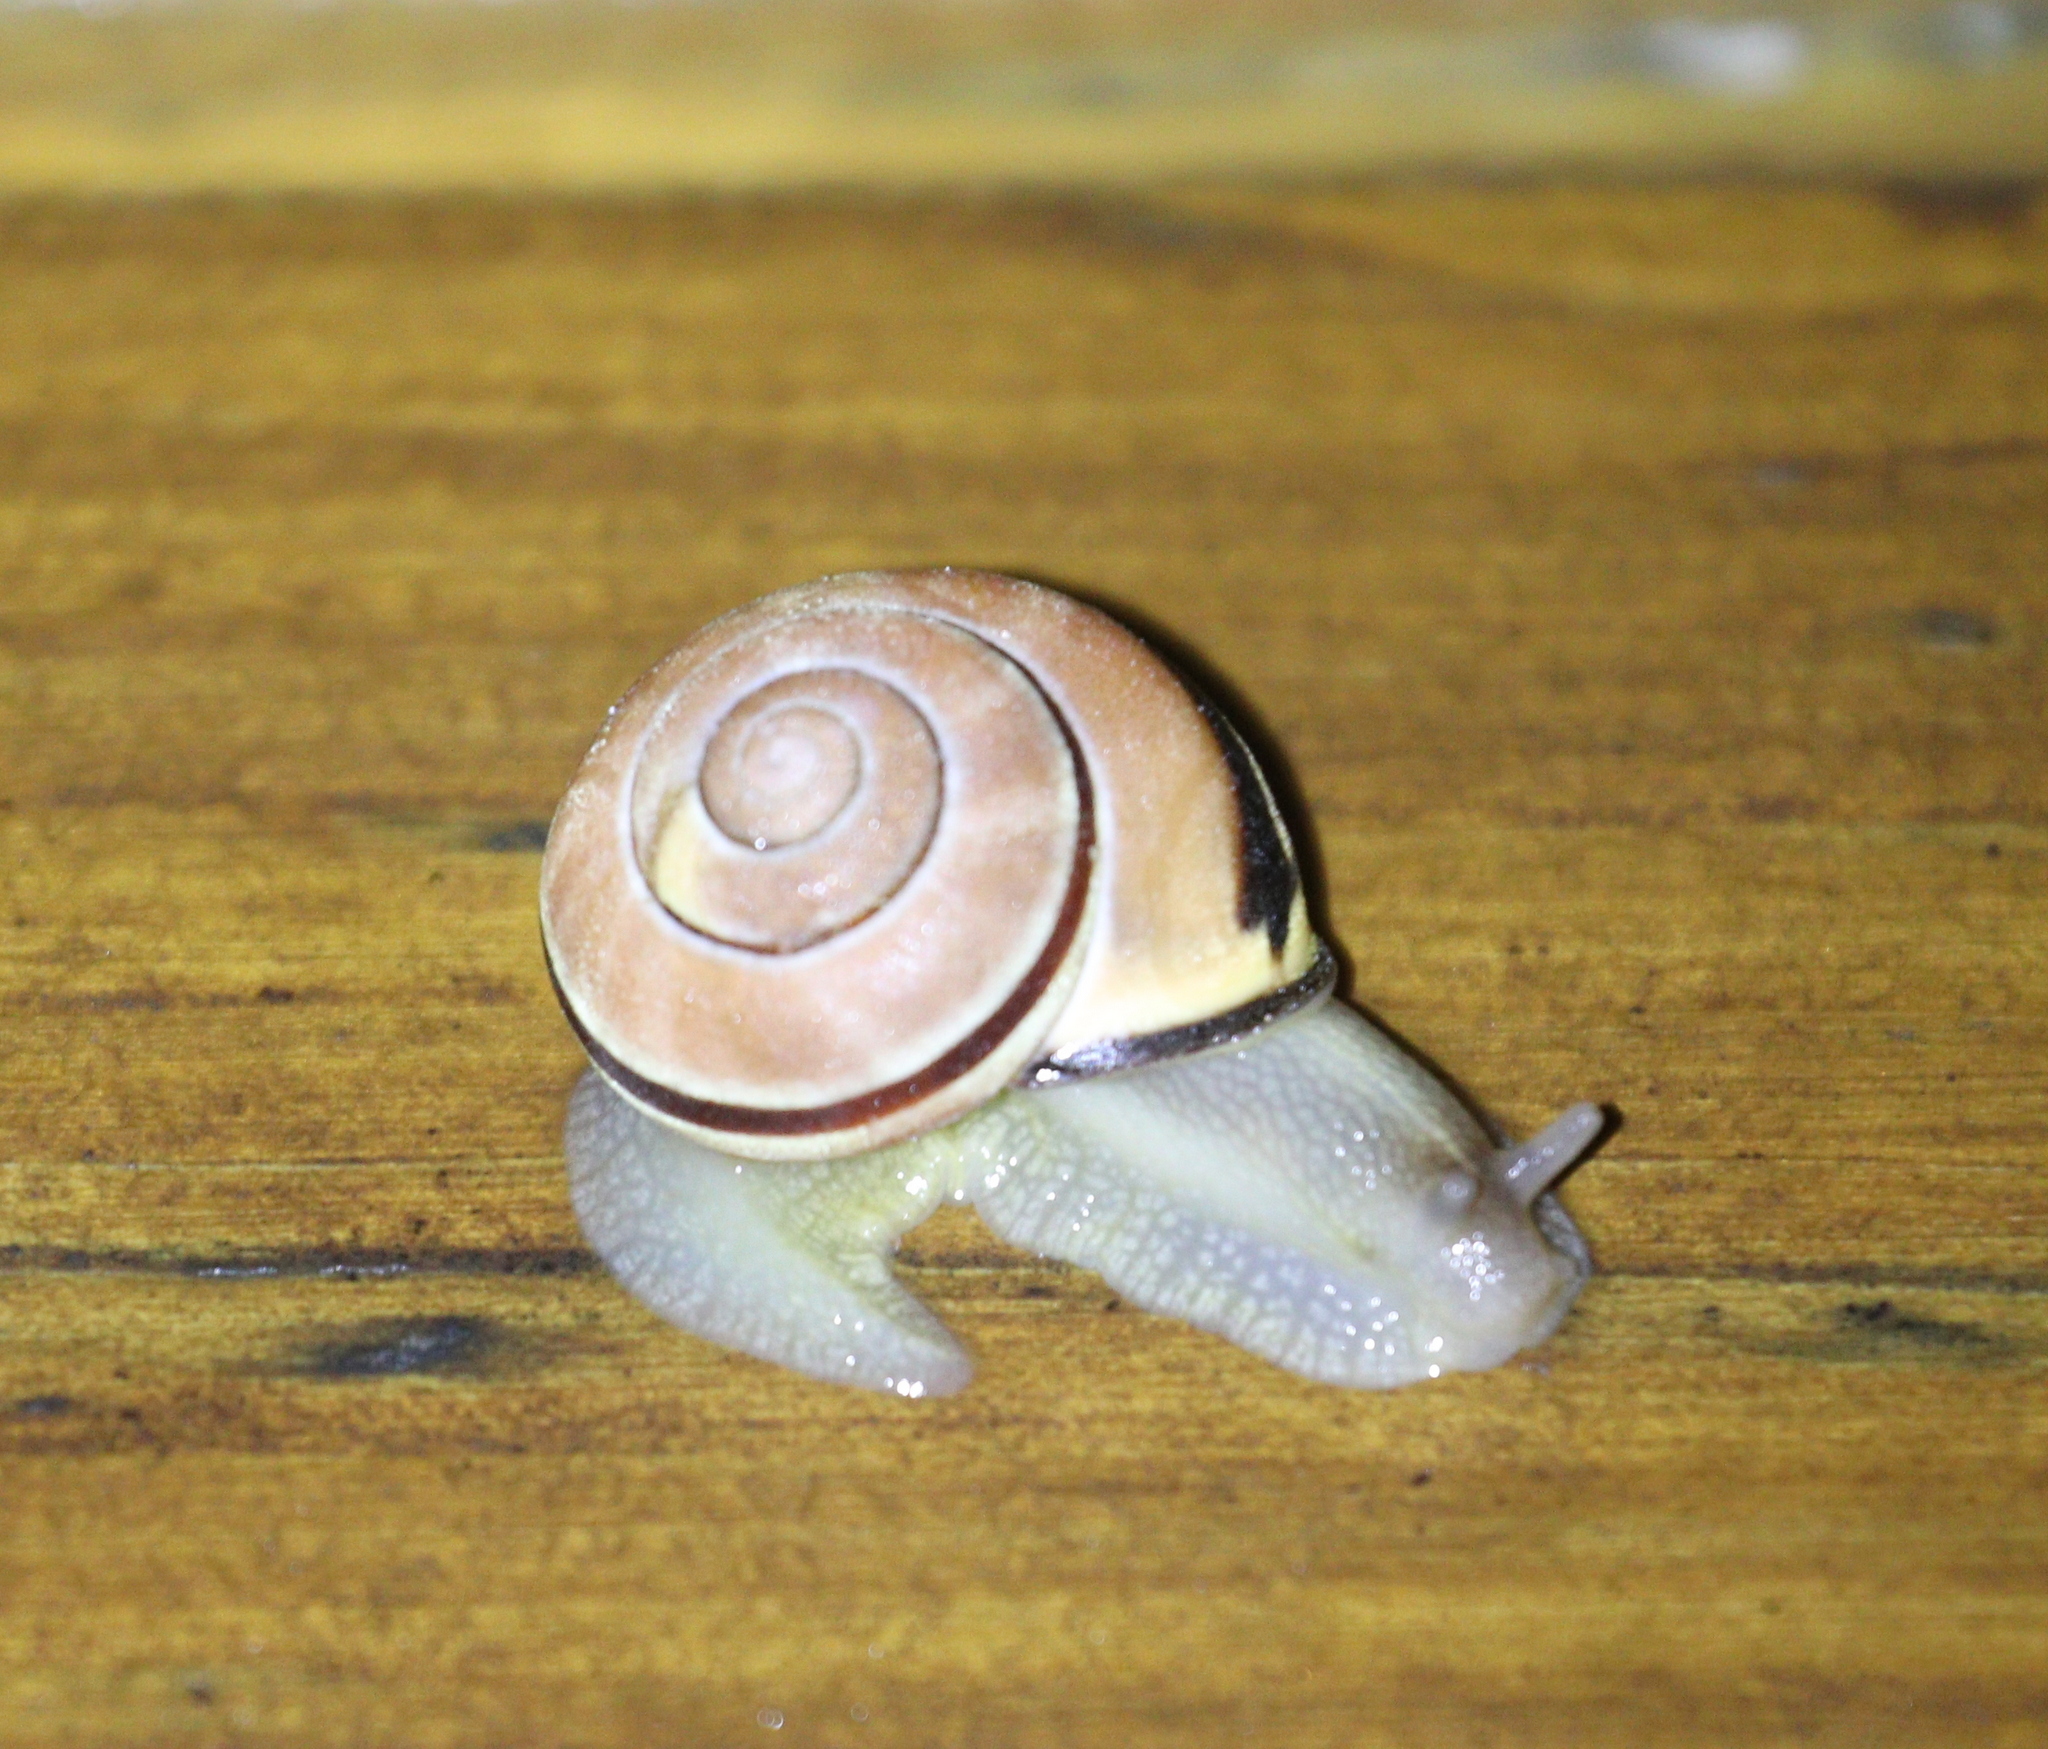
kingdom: Animalia
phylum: Mollusca
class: Gastropoda
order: Stylommatophora
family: Helicidae
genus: Cepaea
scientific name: Cepaea nemoralis
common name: Grovesnail
